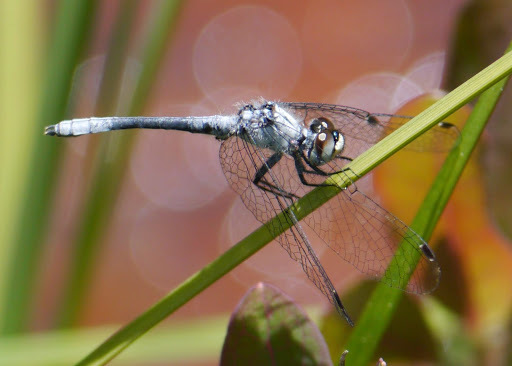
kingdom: Animalia
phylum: Arthropoda
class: Insecta
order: Odonata
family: Libellulidae
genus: Nannothemis
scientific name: Nannothemis bella
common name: Elfin skimmer
